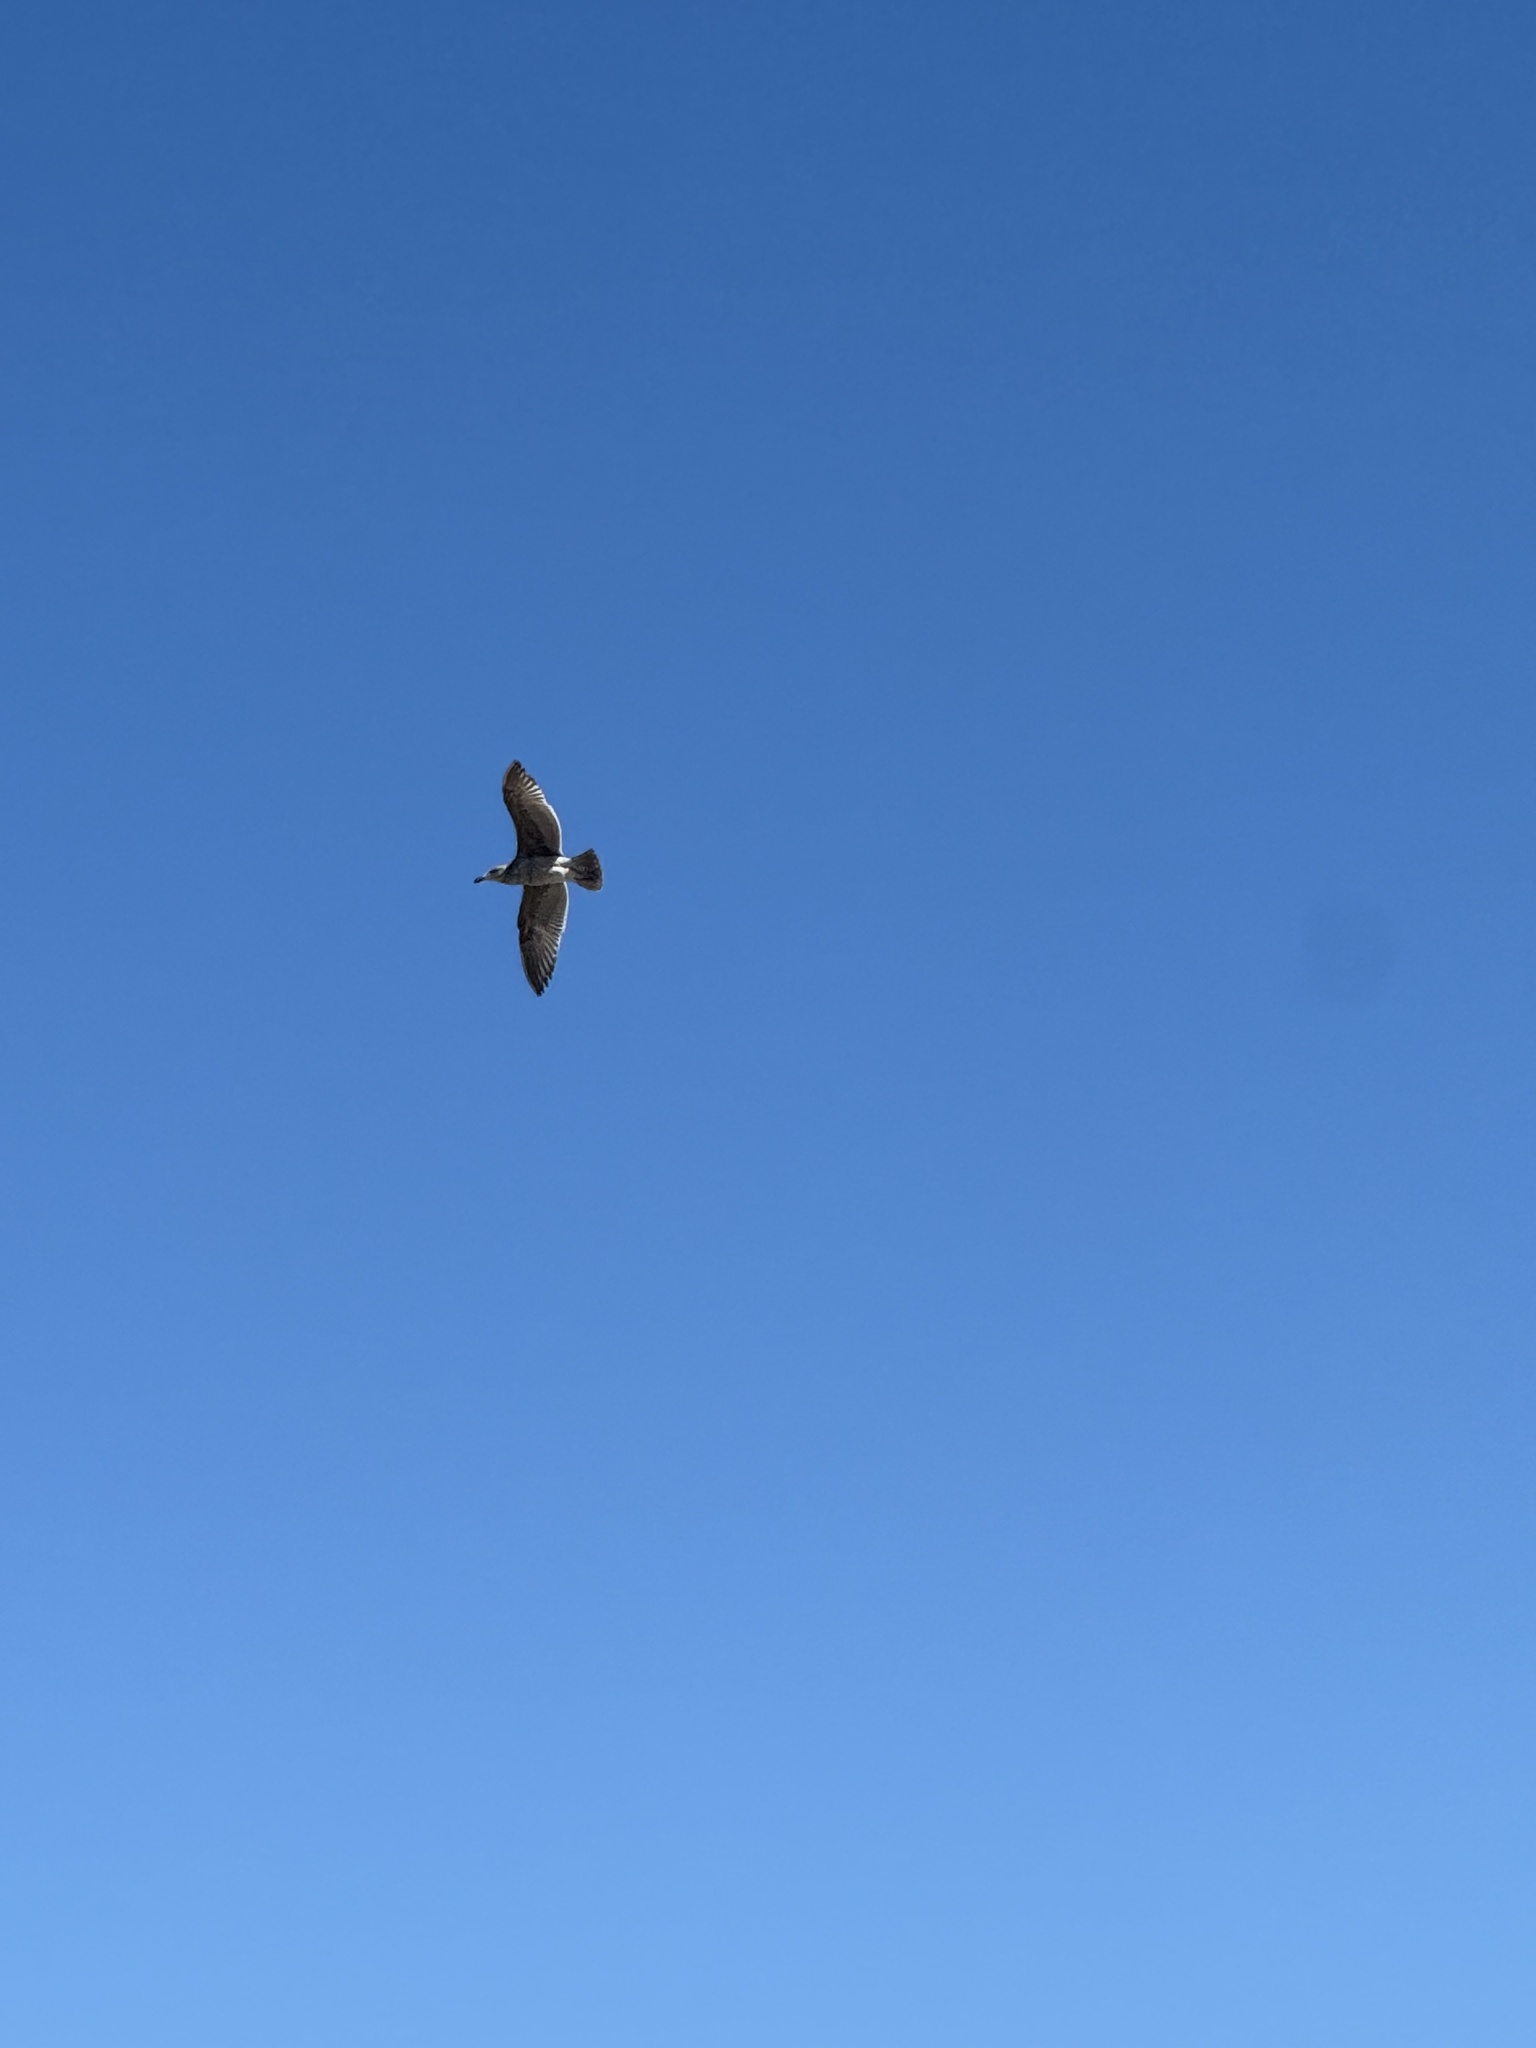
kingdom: Animalia
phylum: Chordata
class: Aves
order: Charadriiformes
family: Laridae
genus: Larus
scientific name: Larus occidentalis
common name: Western gull
